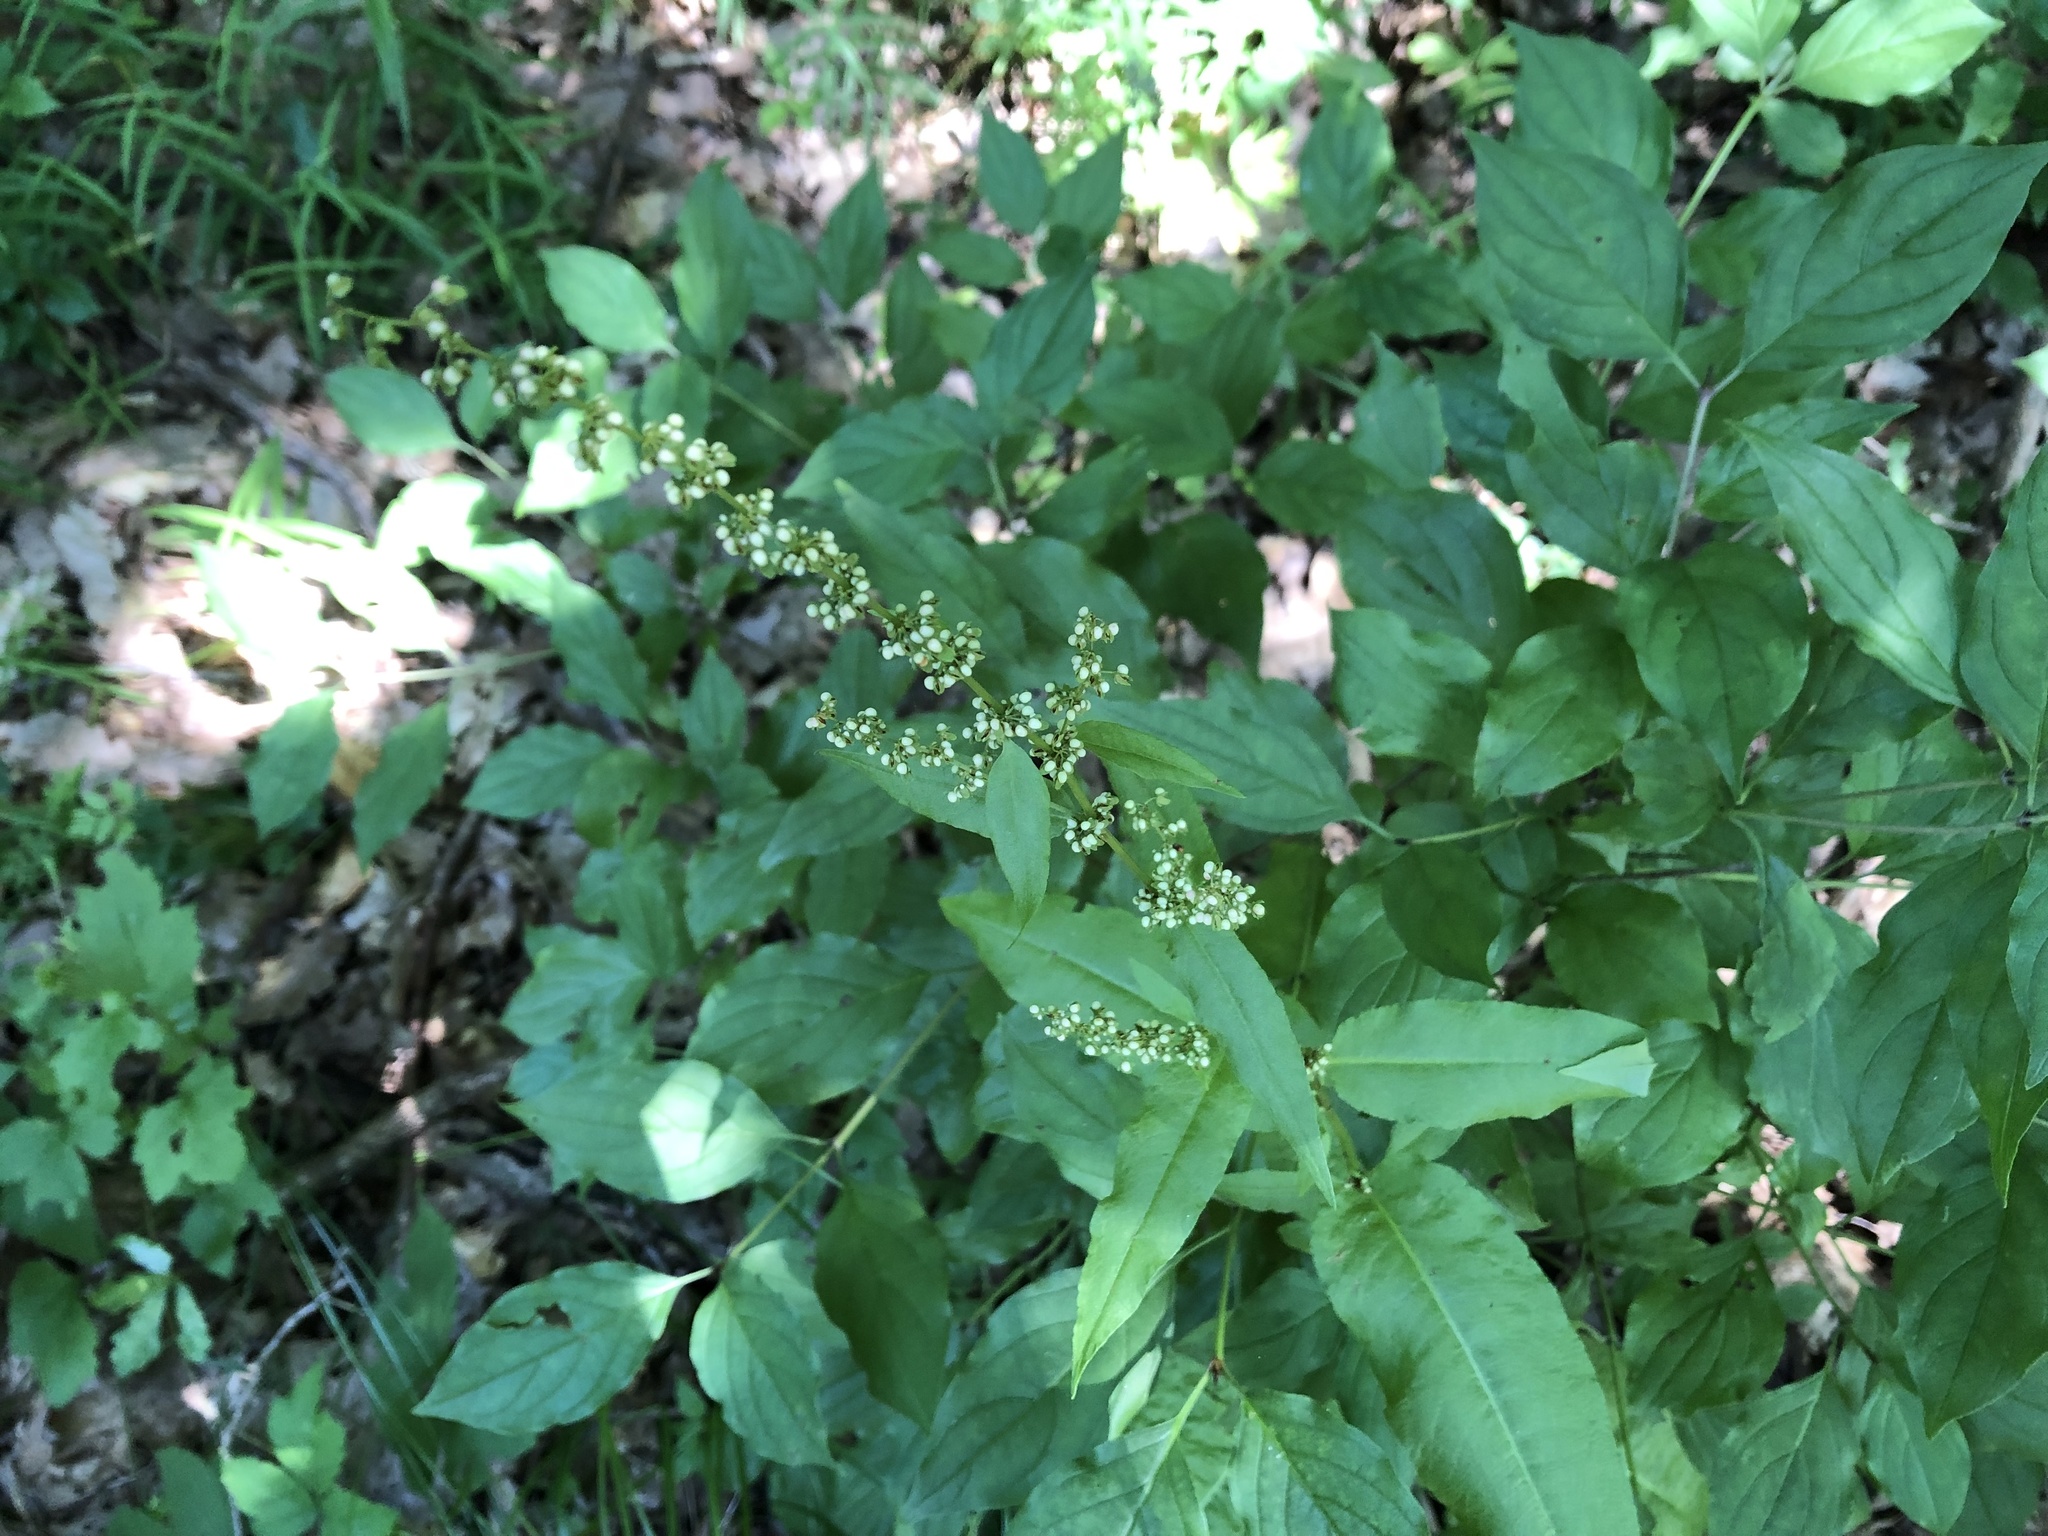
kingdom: Plantae
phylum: Tracheophyta
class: Magnoliopsida
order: Caryophyllales
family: Polygonaceae
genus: Rumex
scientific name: Rumex sanguineus
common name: Wood dock
